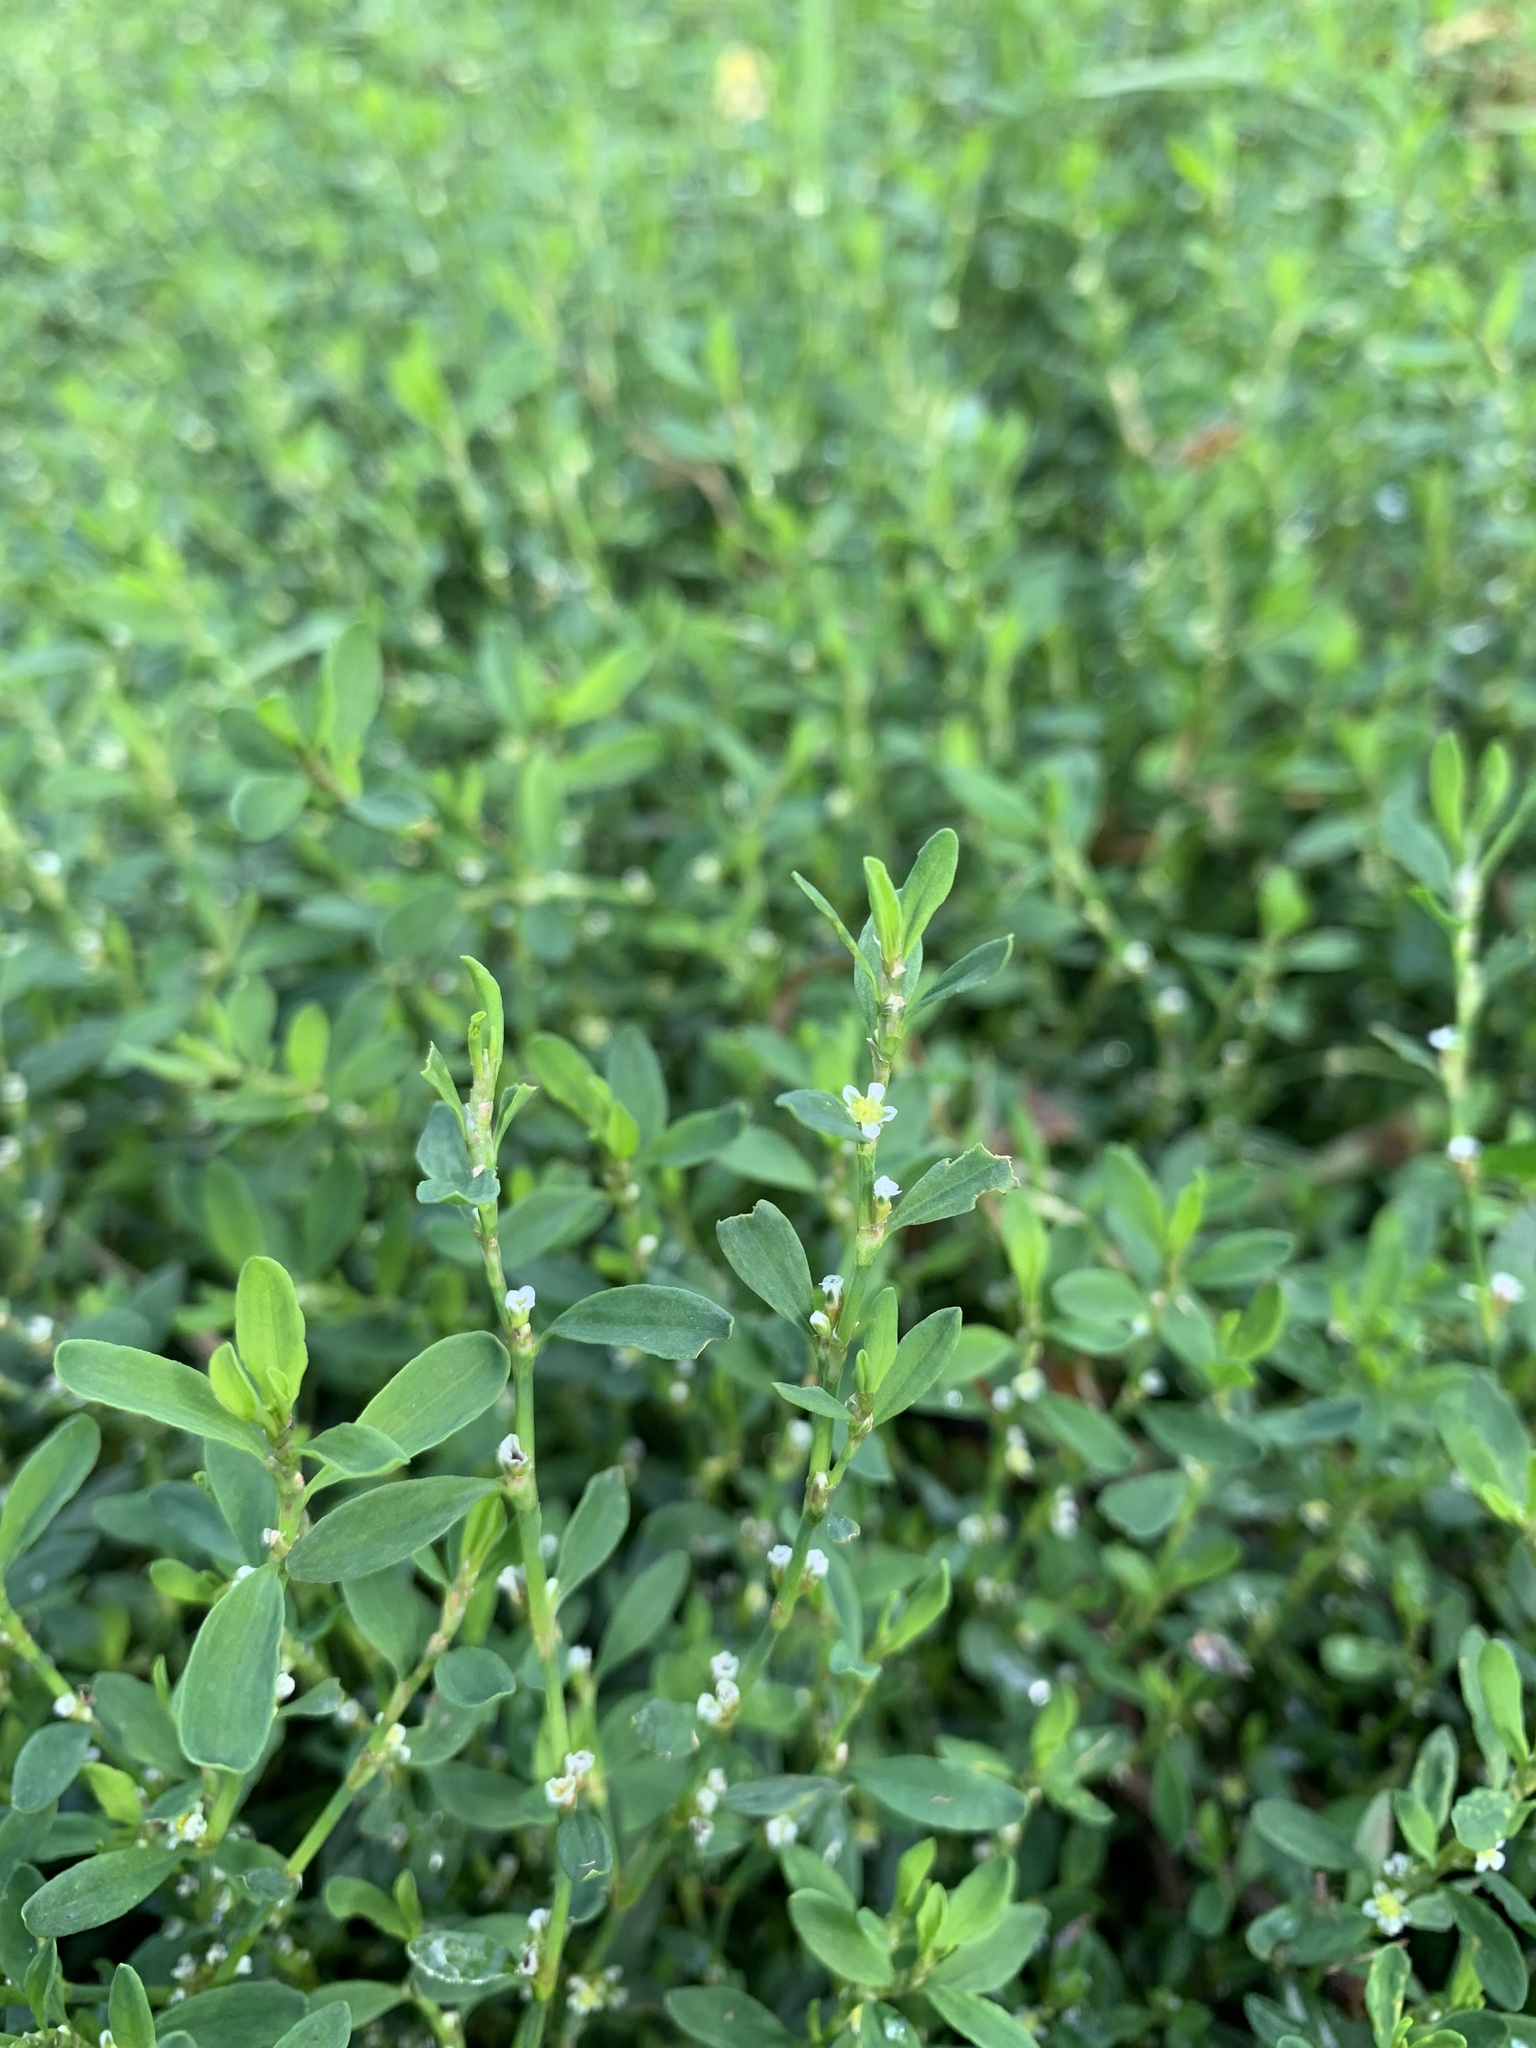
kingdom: Plantae
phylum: Tracheophyta
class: Magnoliopsida
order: Caryophyllales
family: Polygonaceae
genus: Polygonum
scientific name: Polygonum aviculare
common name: Prostrate knotweed
